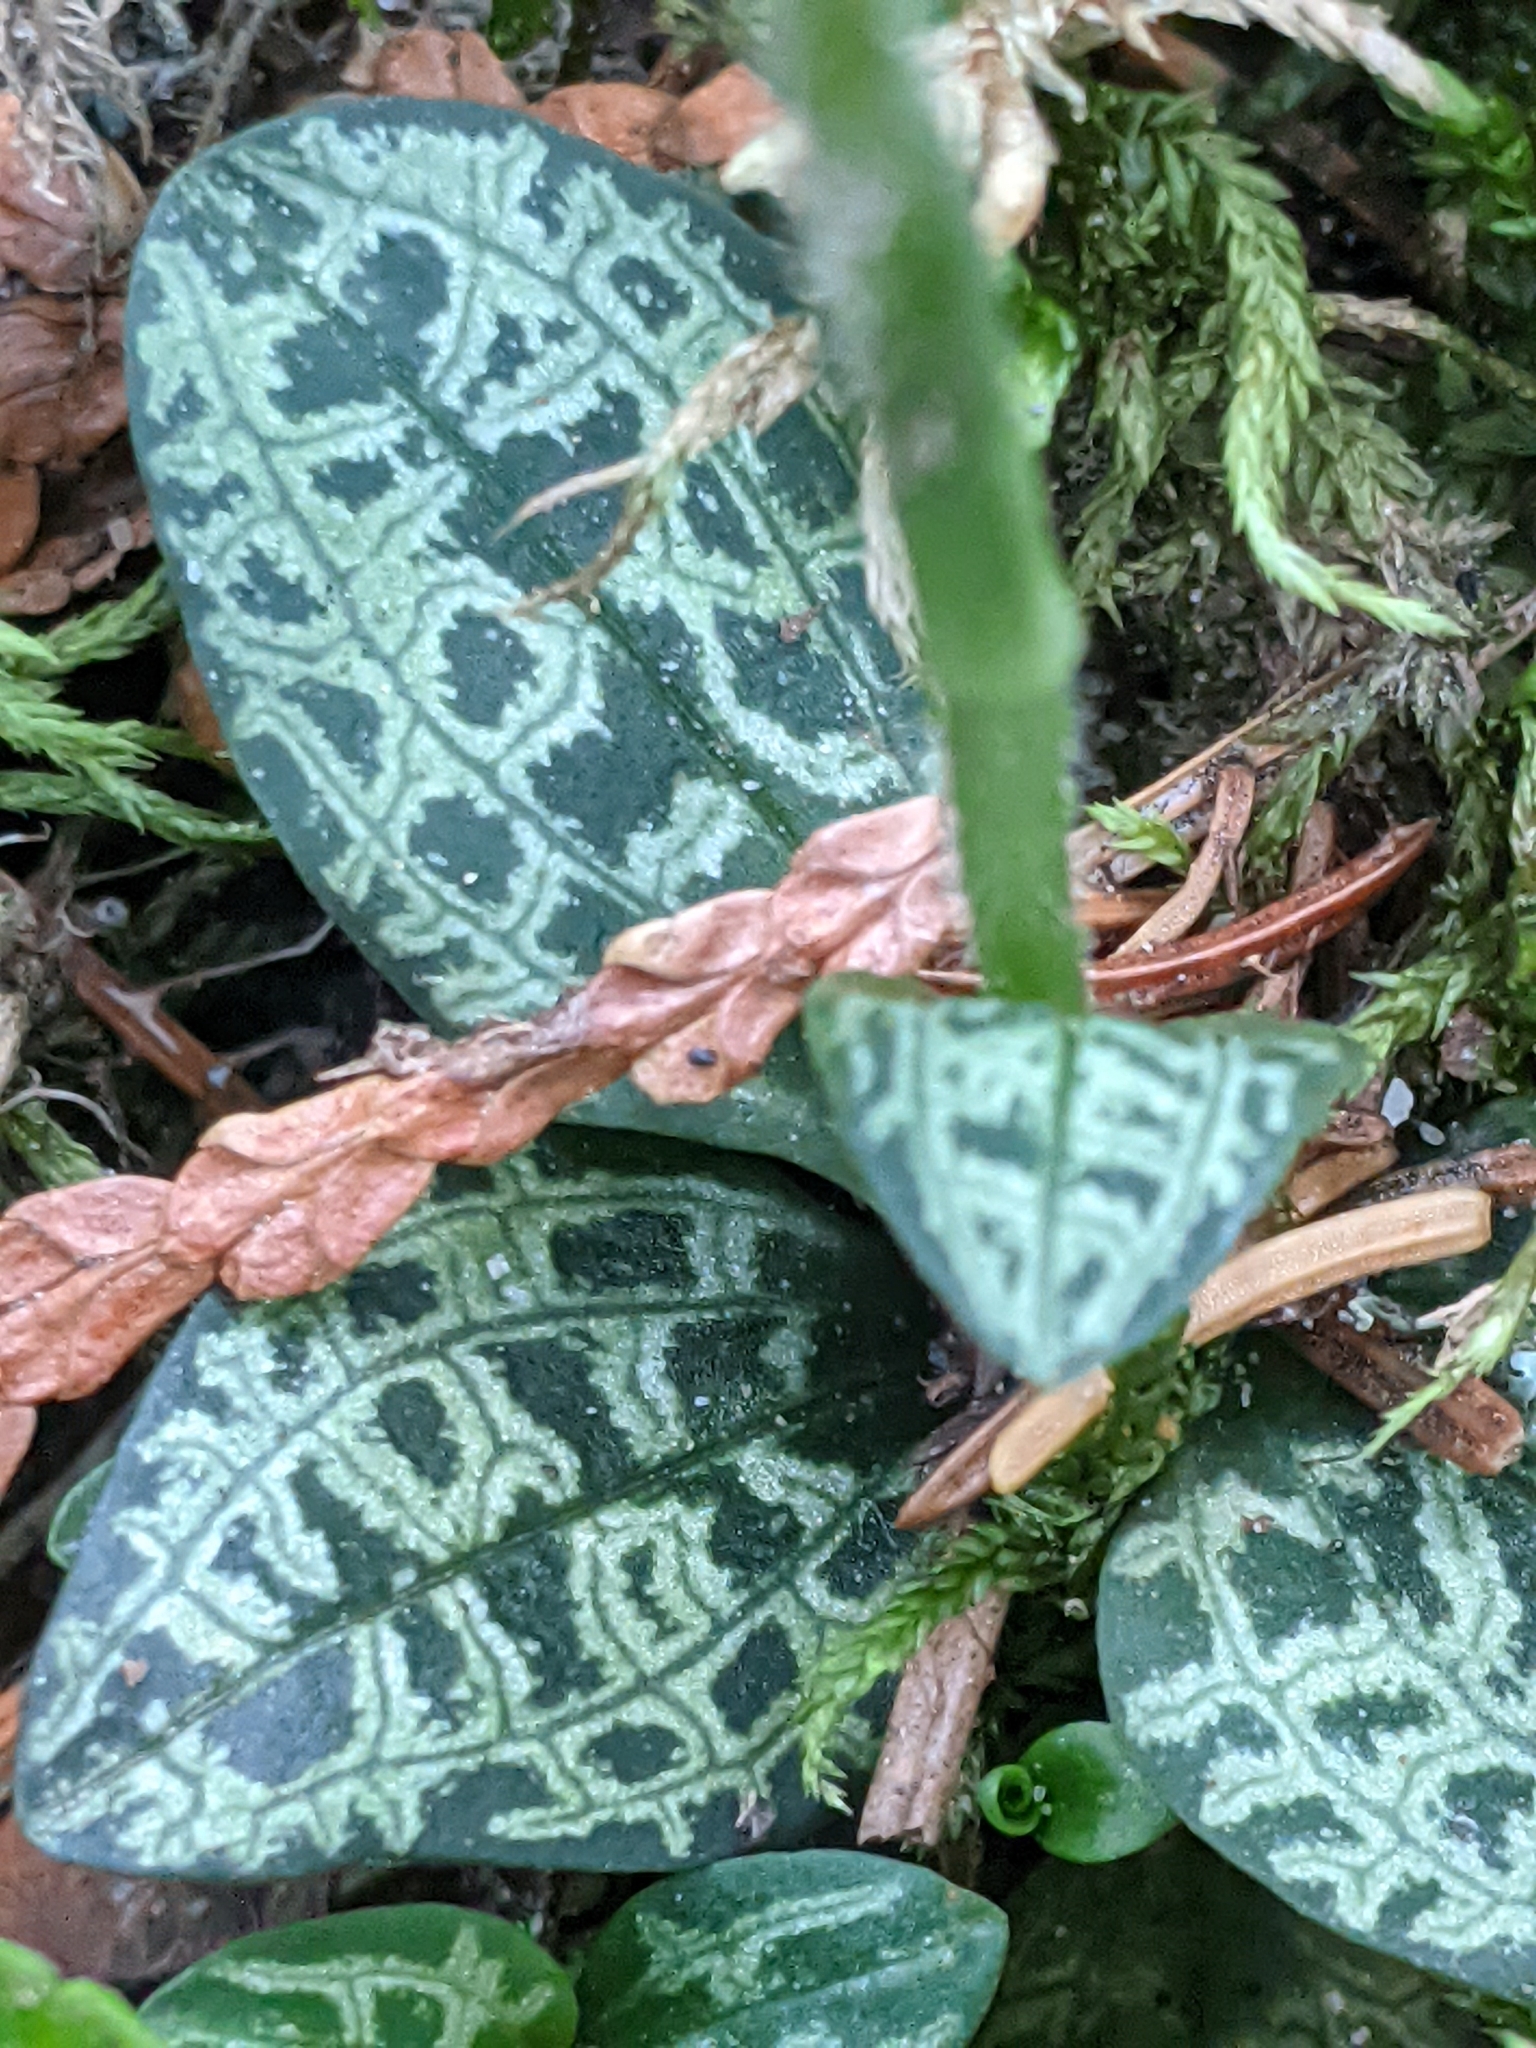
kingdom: Plantae
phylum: Tracheophyta
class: Liliopsida
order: Asparagales
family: Orchidaceae
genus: Goodyera
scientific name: Goodyera repens
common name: Creeping lady's-tresses
